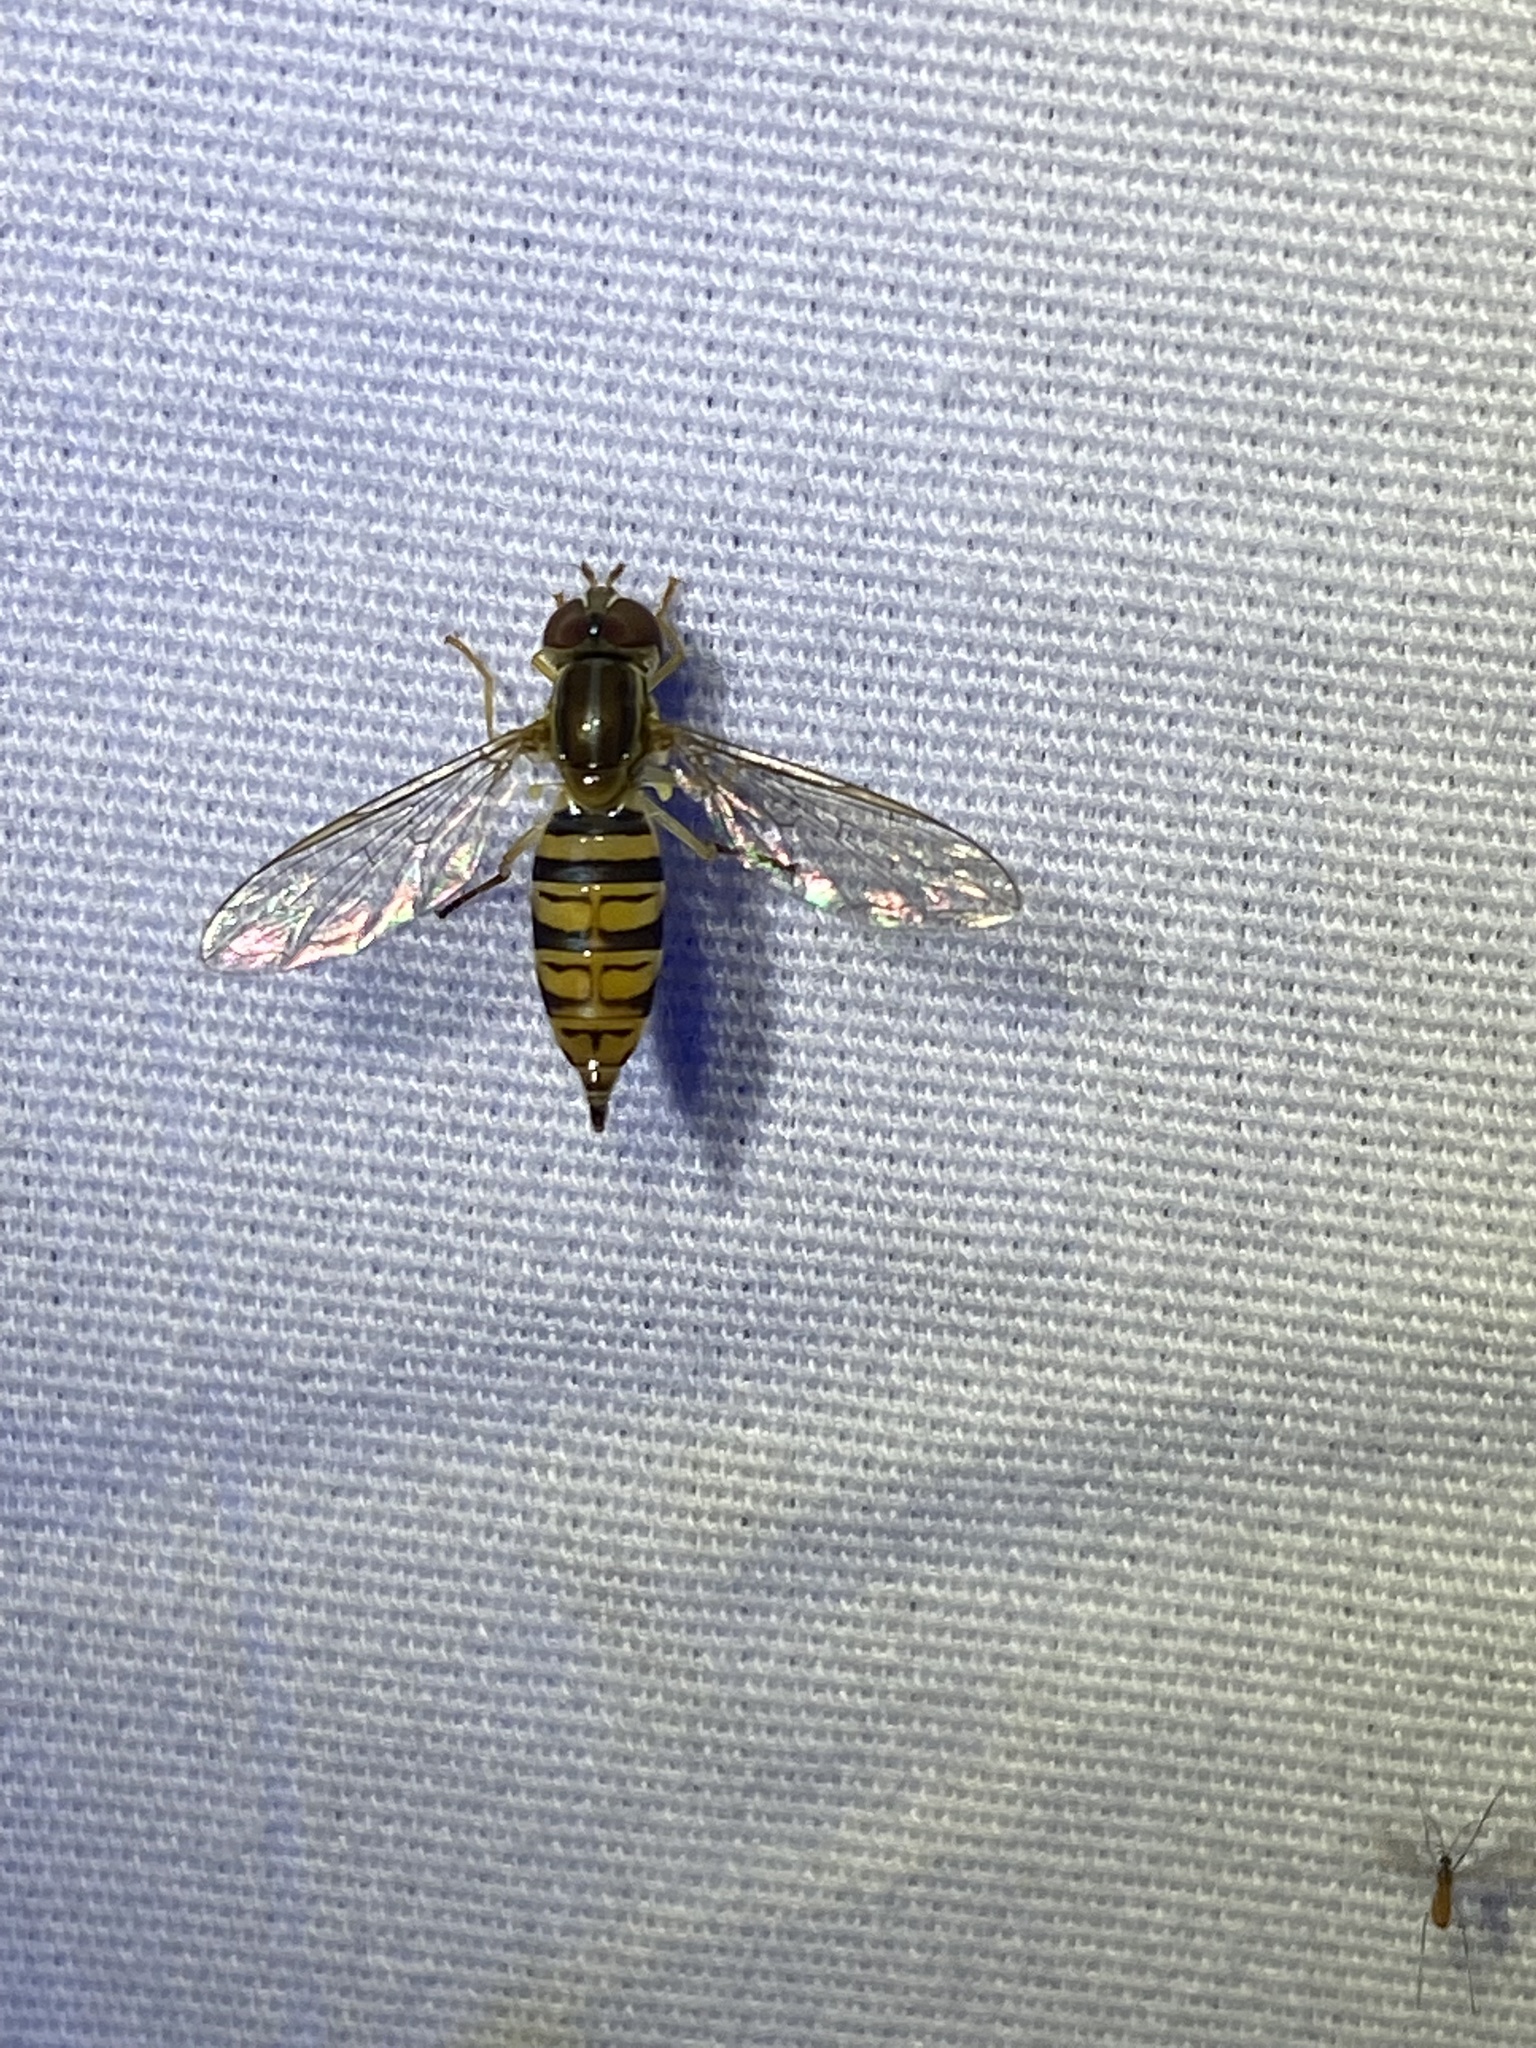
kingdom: Animalia
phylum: Arthropoda
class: Insecta
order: Diptera
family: Syrphidae
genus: Toxomerus
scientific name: Toxomerus politus
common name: Maize calligrapher
